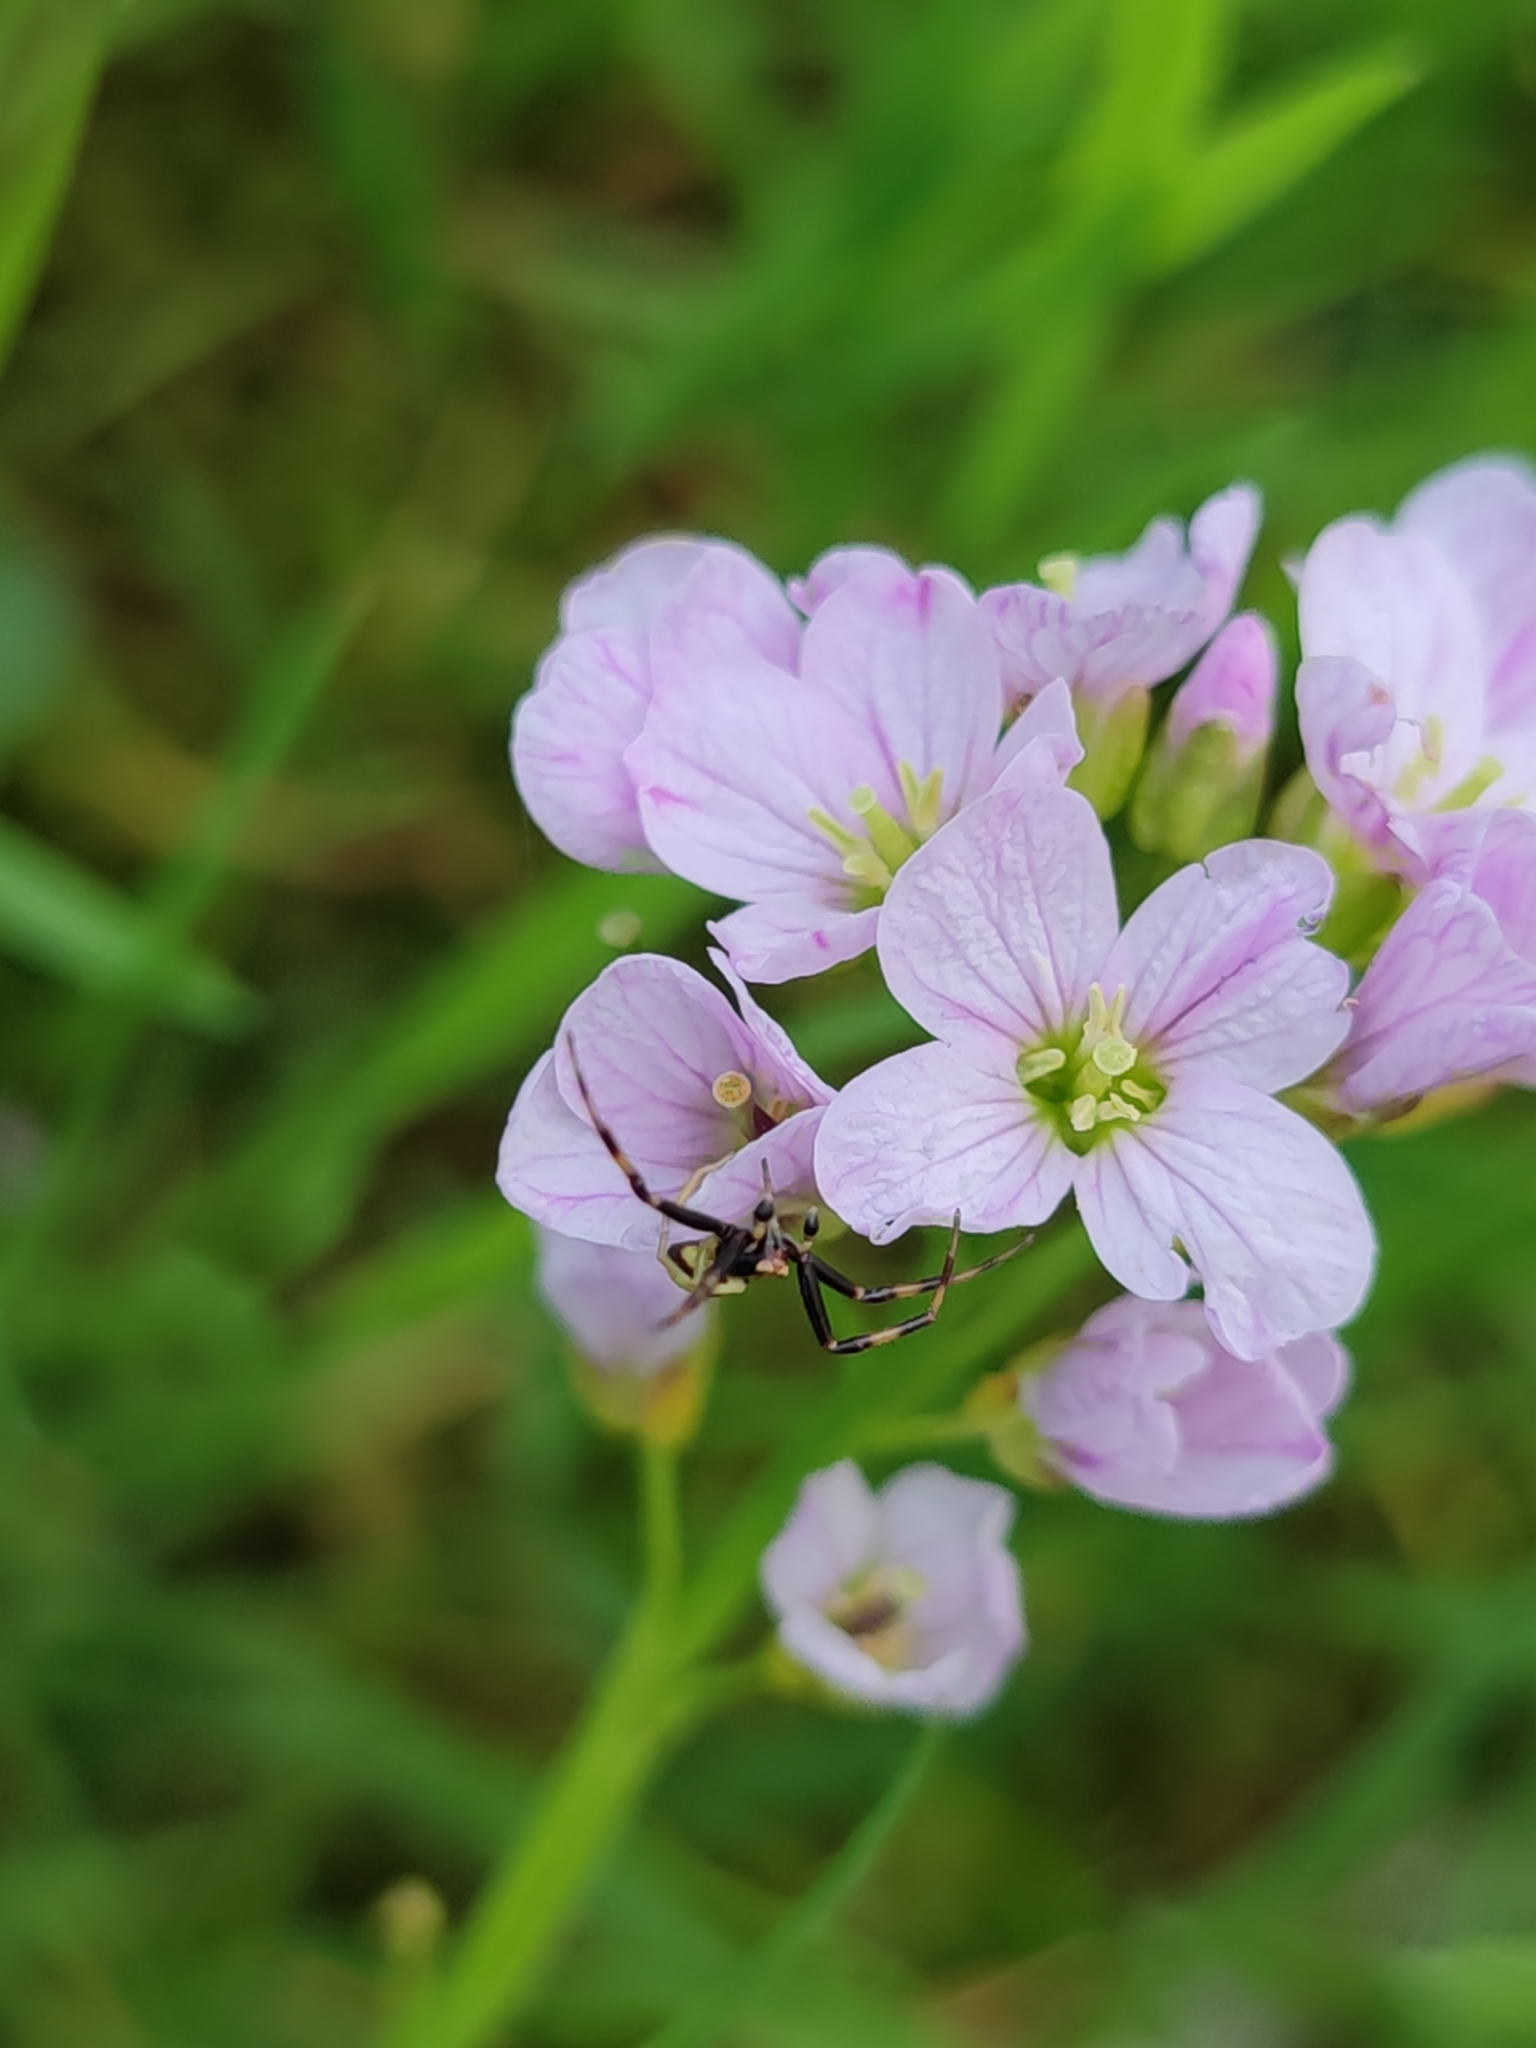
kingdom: Plantae
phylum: Tracheophyta
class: Magnoliopsida
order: Brassicales
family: Brassicaceae
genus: Cardamine
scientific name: Cardamine pratensis
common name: Cuckoo flower
